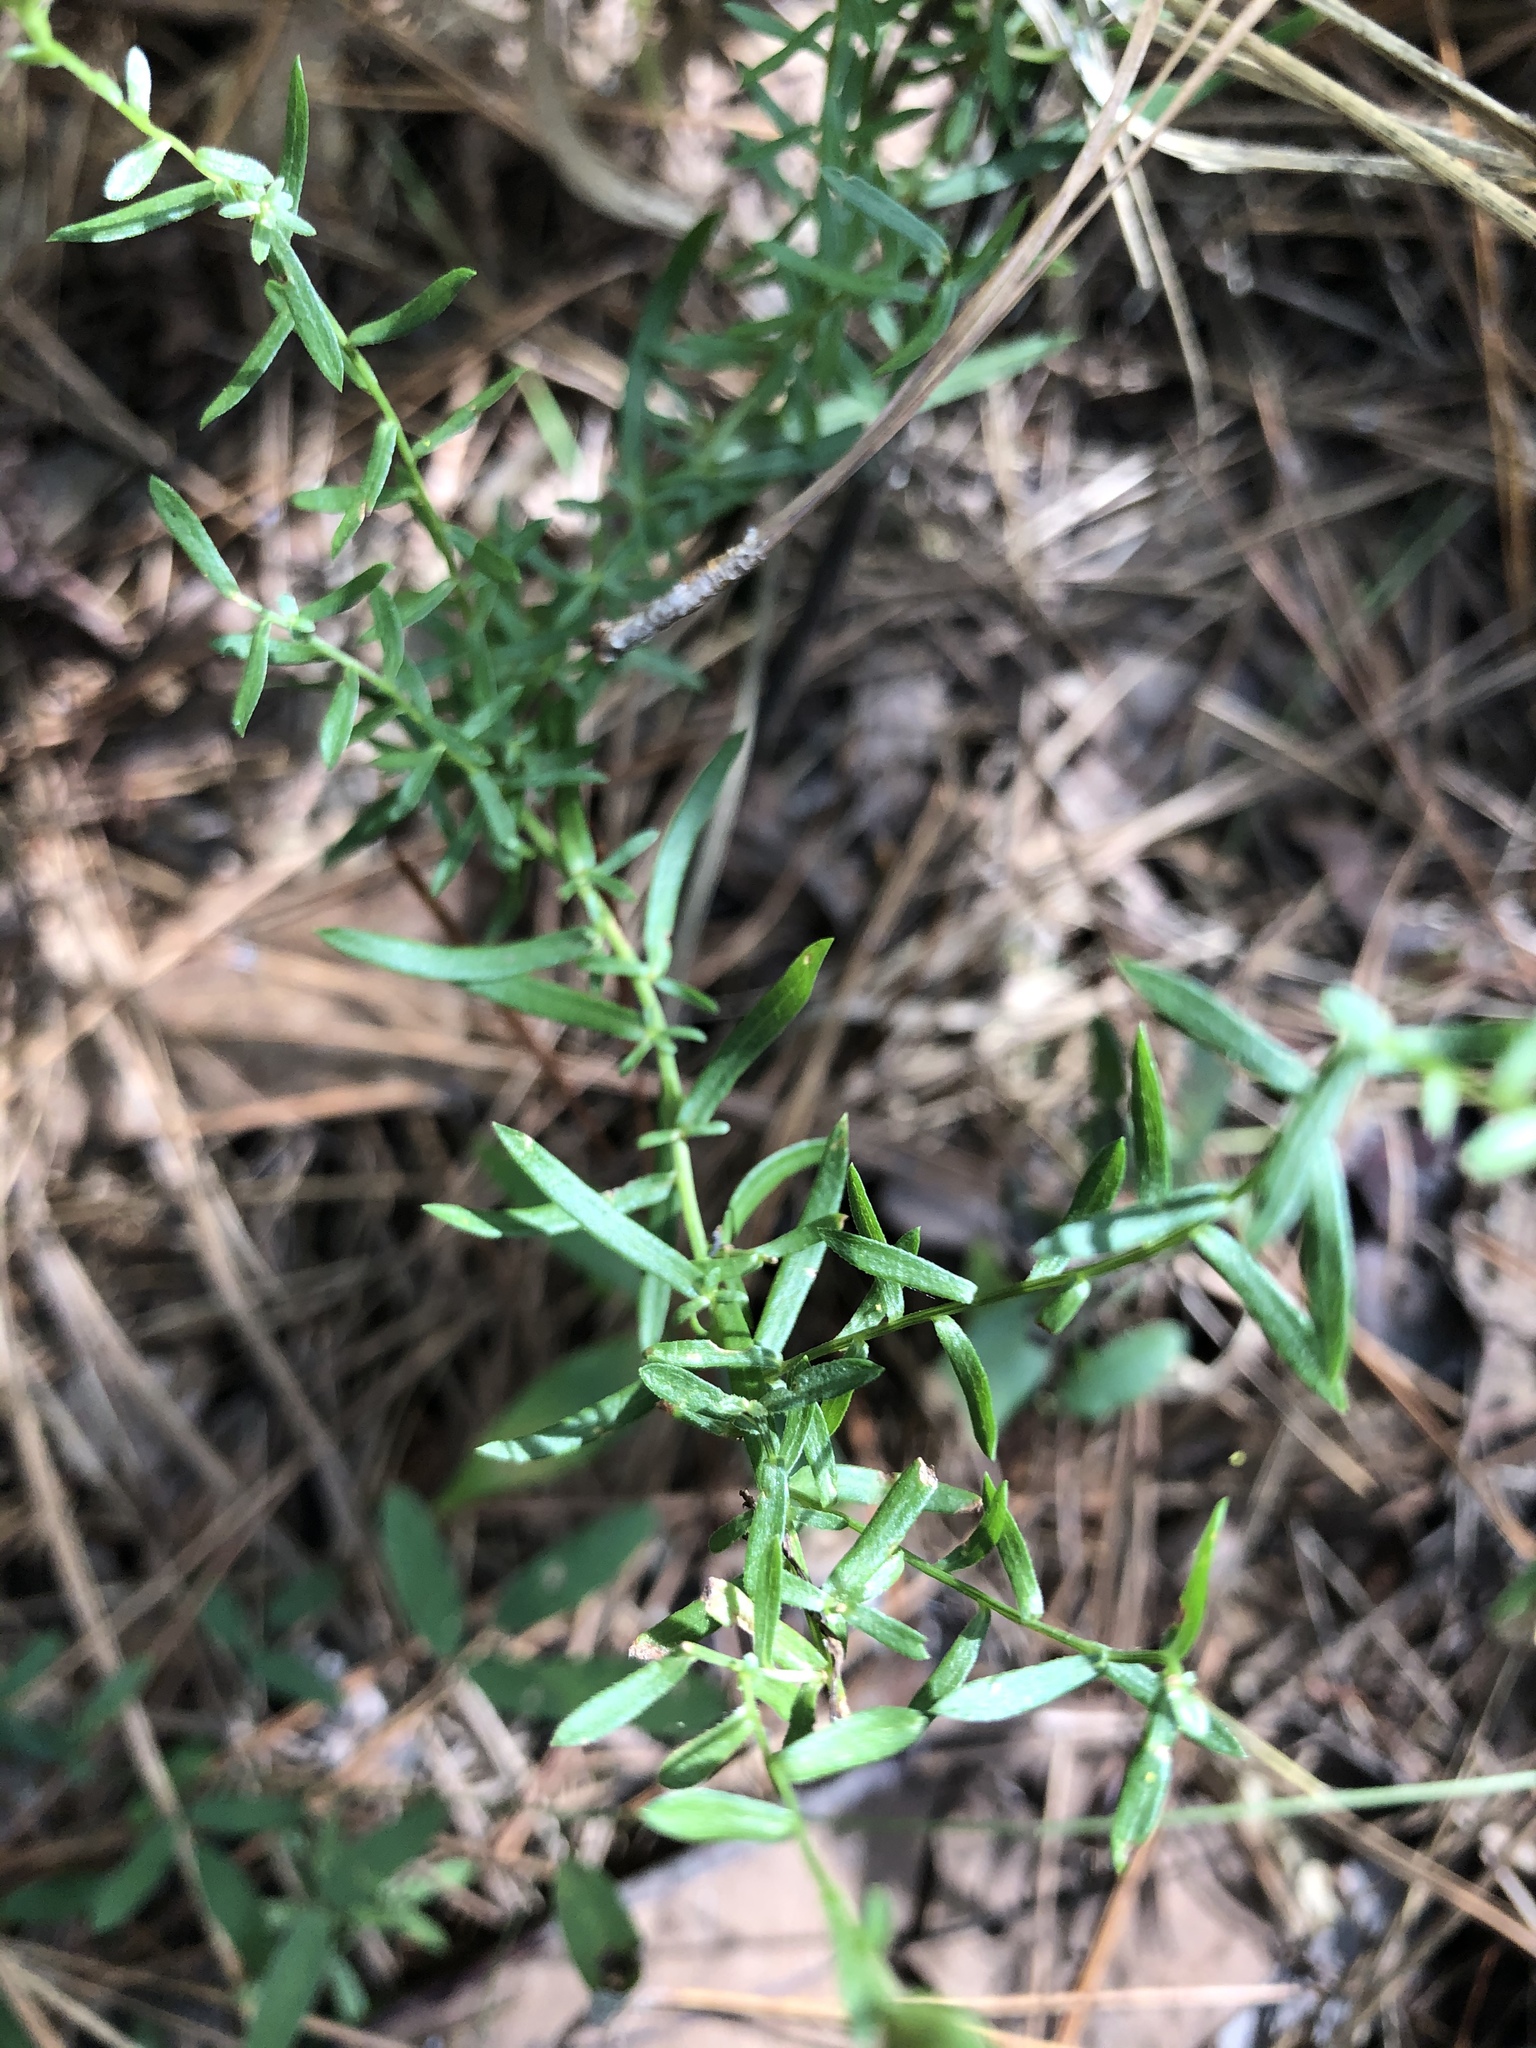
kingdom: Plantae
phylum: Tracheophyta
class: Magnoliopsida
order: Asterales
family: Asteraceae
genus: Symphyotrichum
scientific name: Symphyotrichum dumosum
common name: Bushy aster
